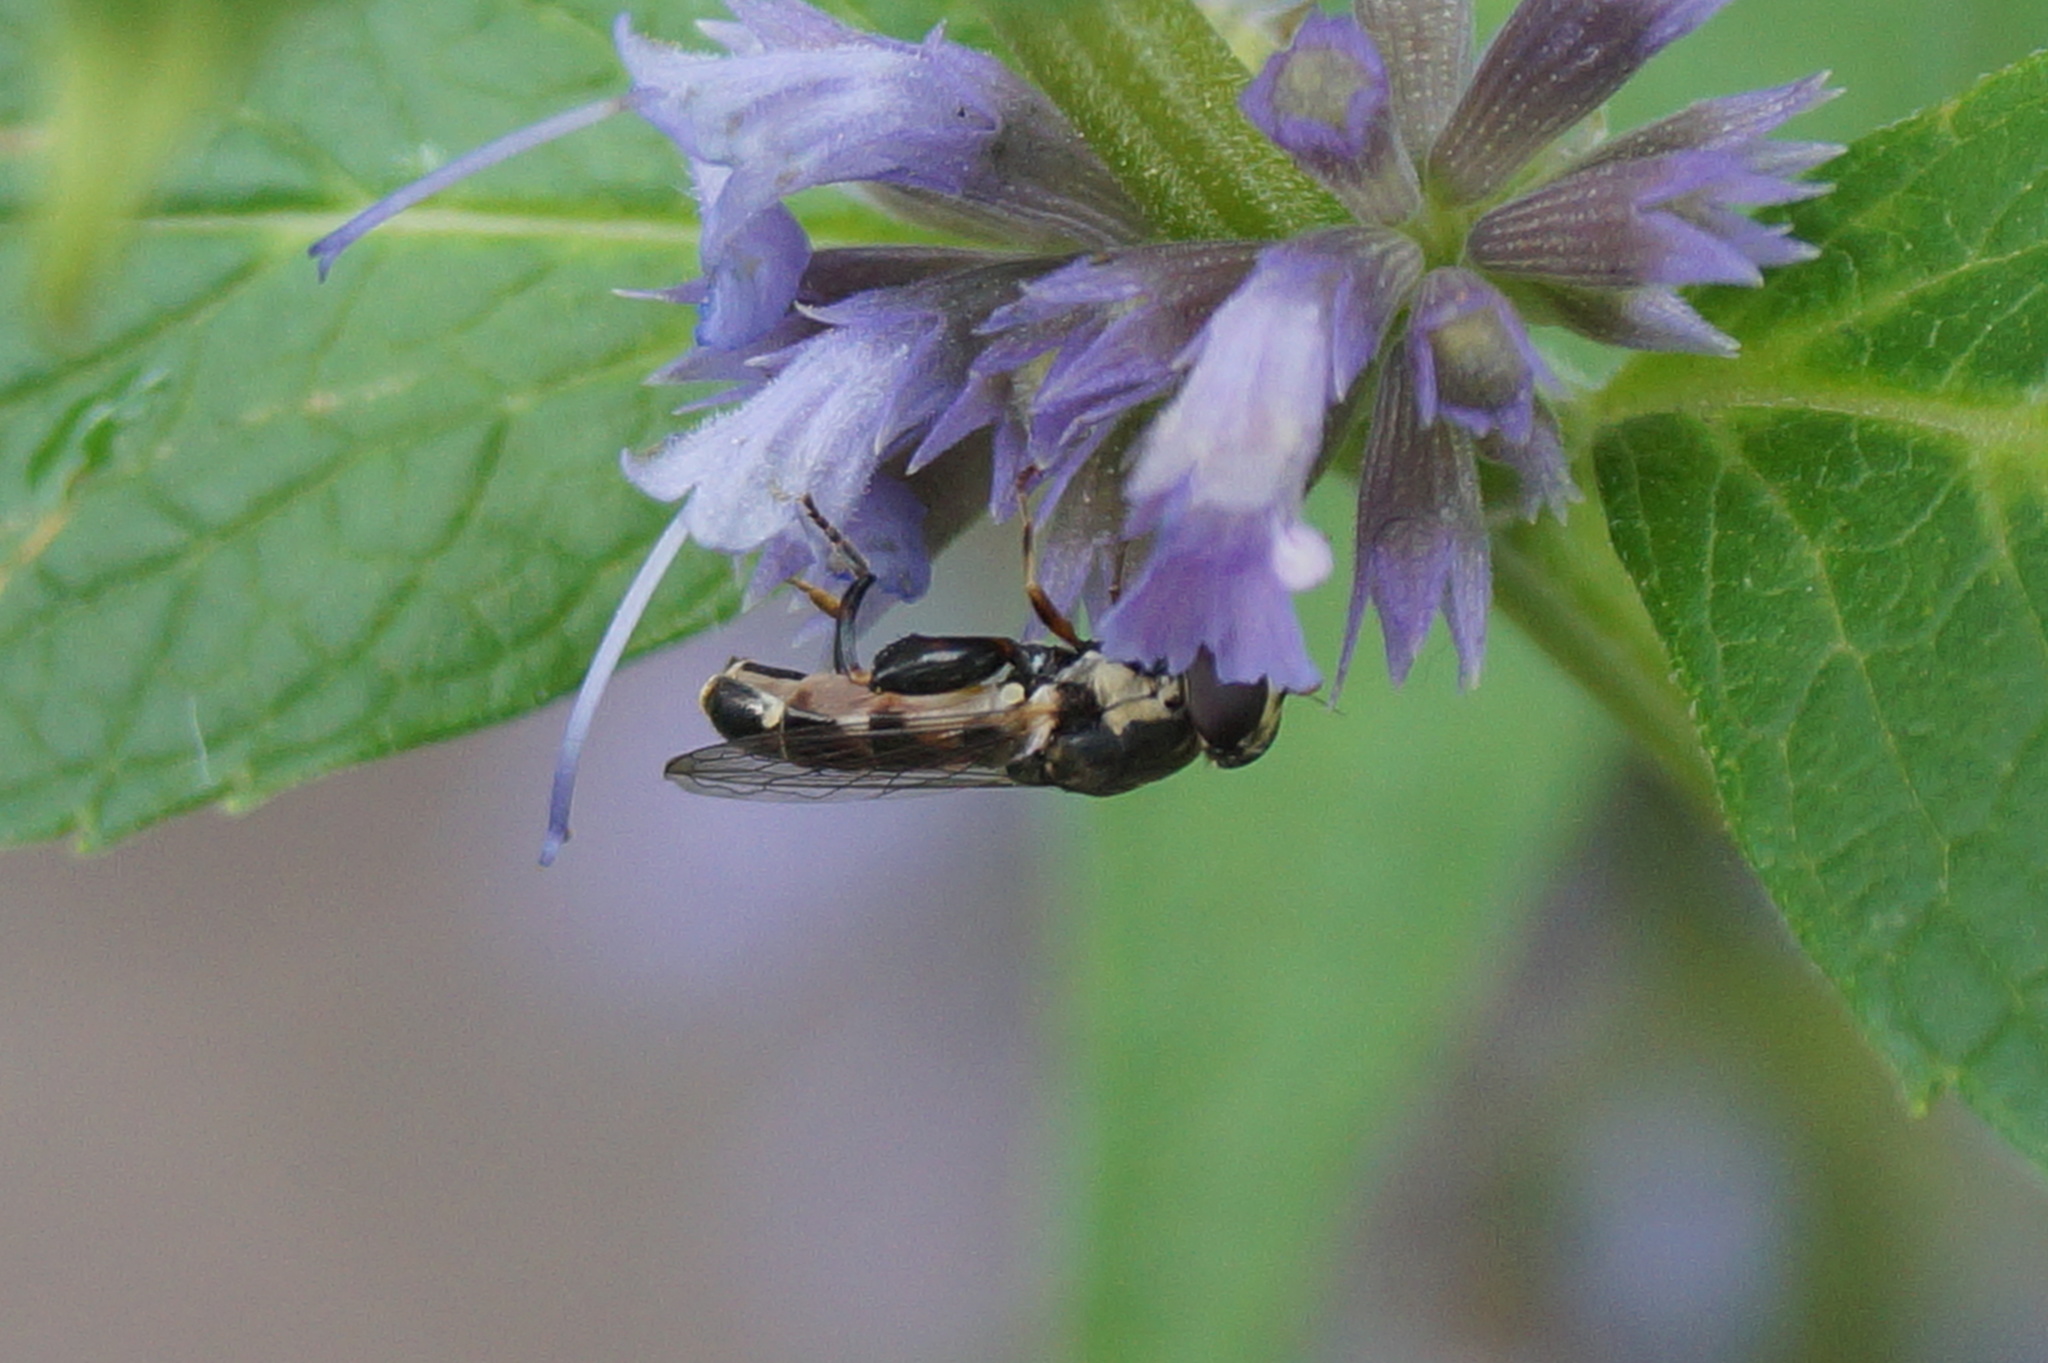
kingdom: Animalia
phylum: Arthropoda
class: Insecta
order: Diptera
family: Syrphidae
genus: Syritta
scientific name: Syritta pipiens
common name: Hover fly
